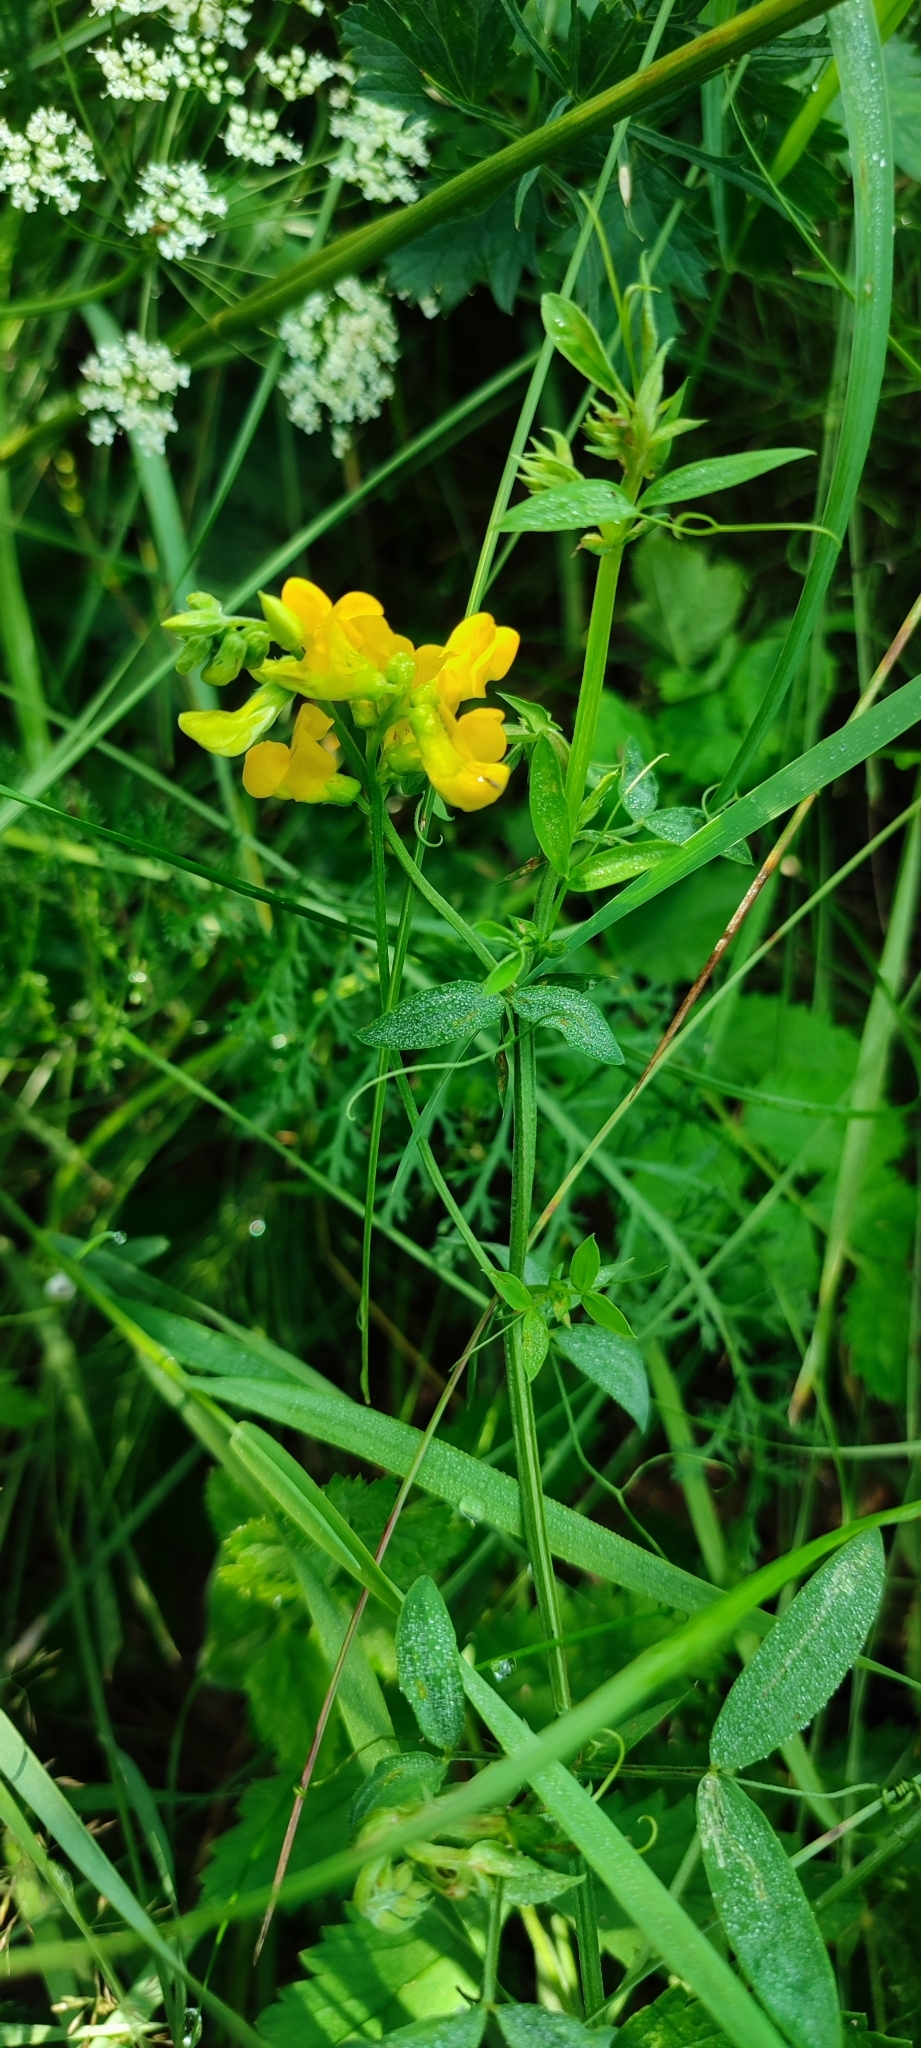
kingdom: Plantae
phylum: Tracheophyta
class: Magnoliopsida
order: Fabales
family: Fabaceae
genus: Lathyrus
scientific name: Lathyrus pratensis
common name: Meadow vetchling
